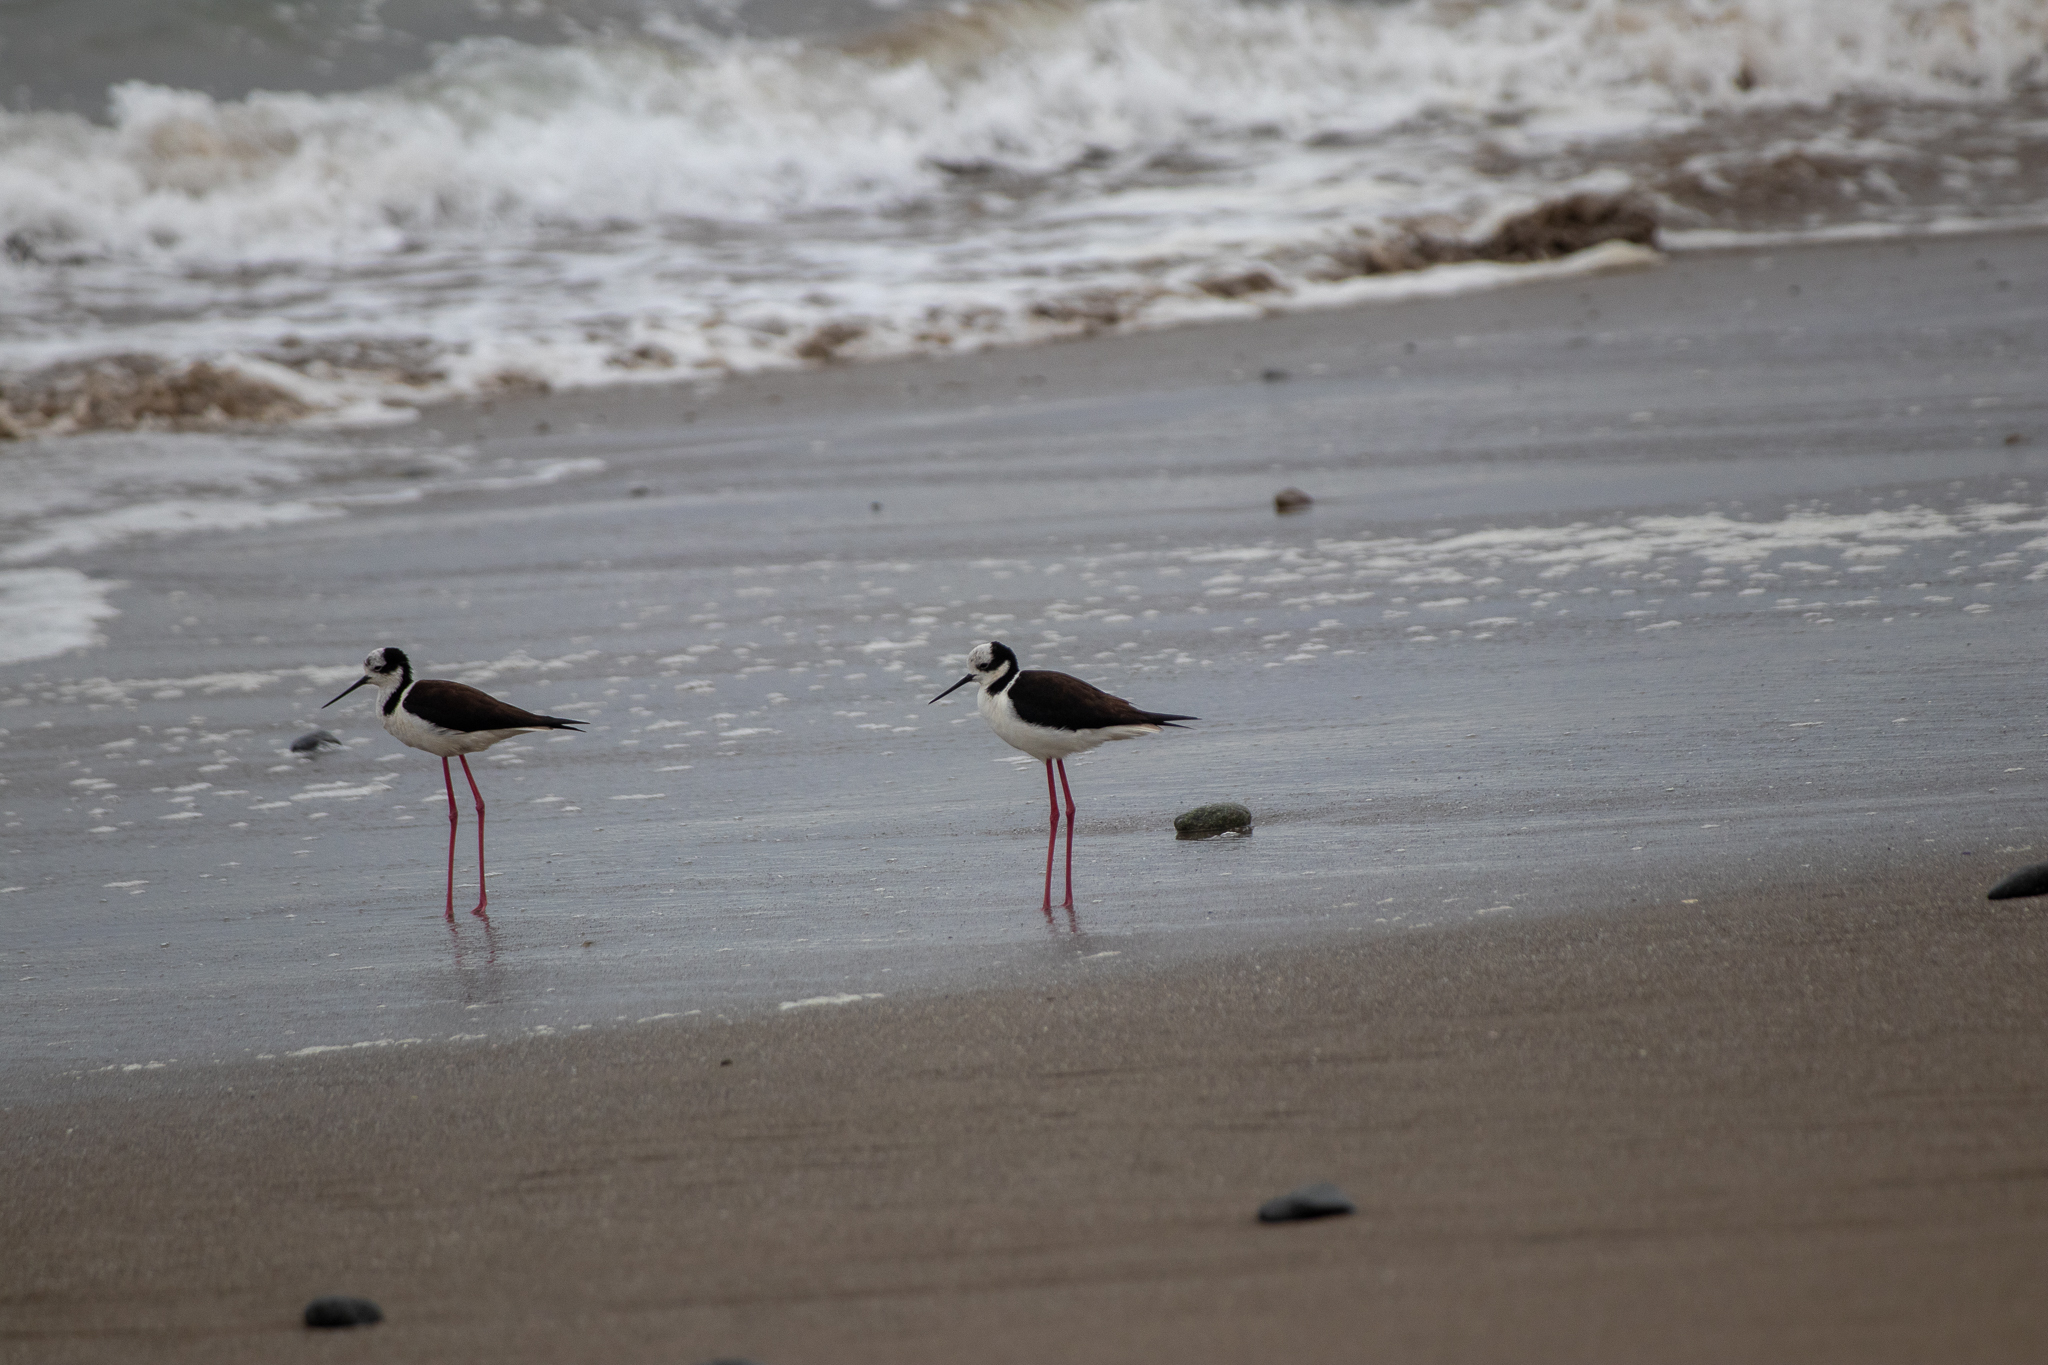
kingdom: Animalia
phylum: Chordata
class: Aves
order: Charadriiformes
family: Recurvirostridae
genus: Himantopus
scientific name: Himantopus mexicanus
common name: Black-necked stilt
